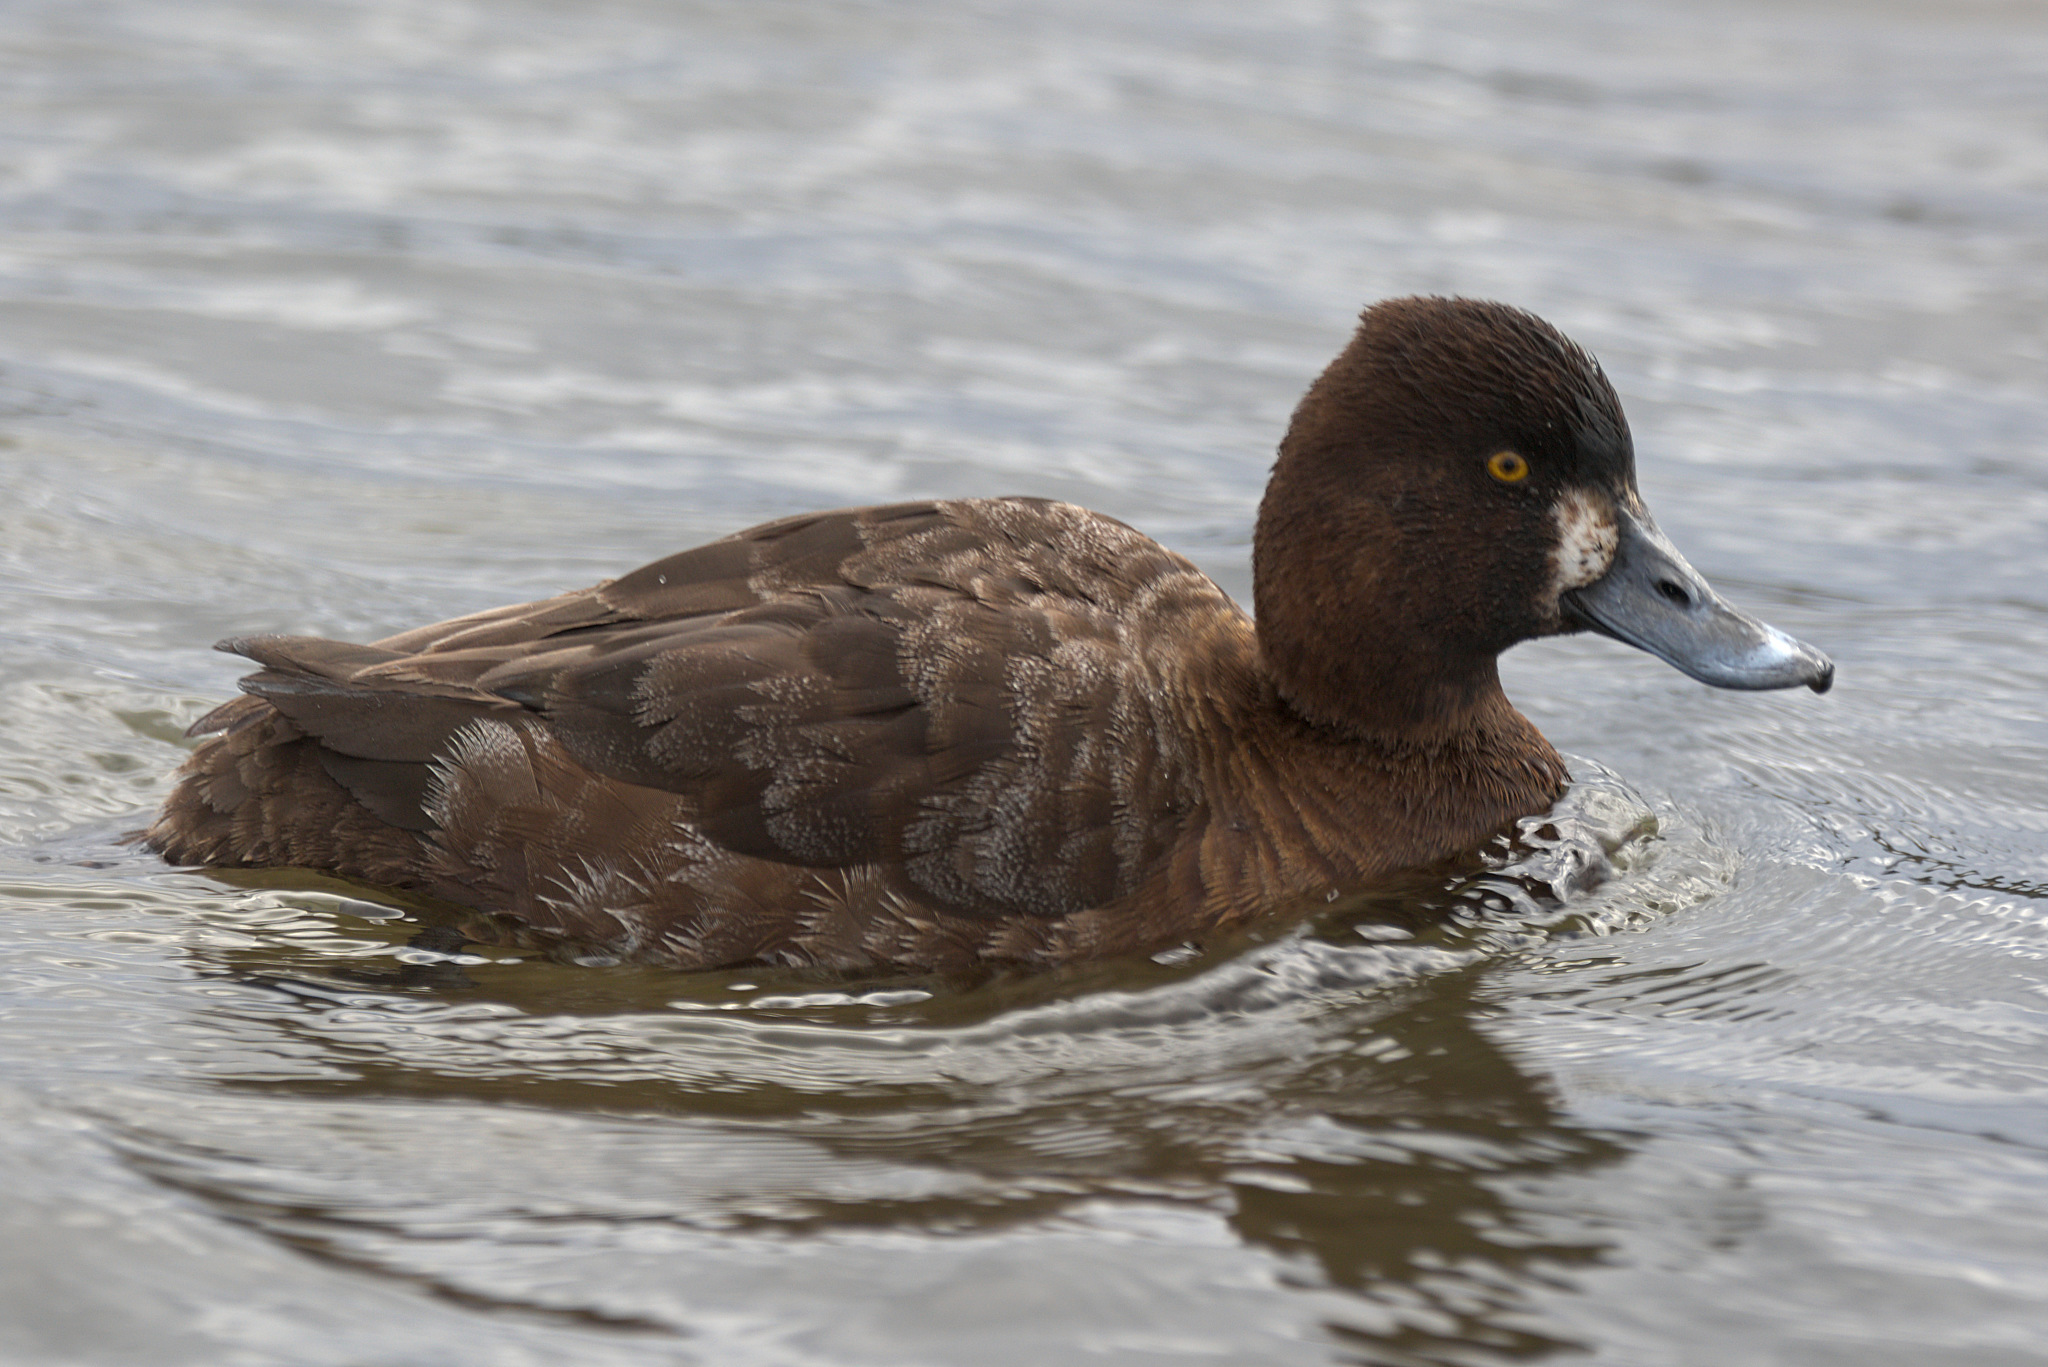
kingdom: Animalia
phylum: Chordata
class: Aves
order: Anseriformes
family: Anatidae
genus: Aythya
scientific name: Aythya affinis
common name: Lesser scaup
